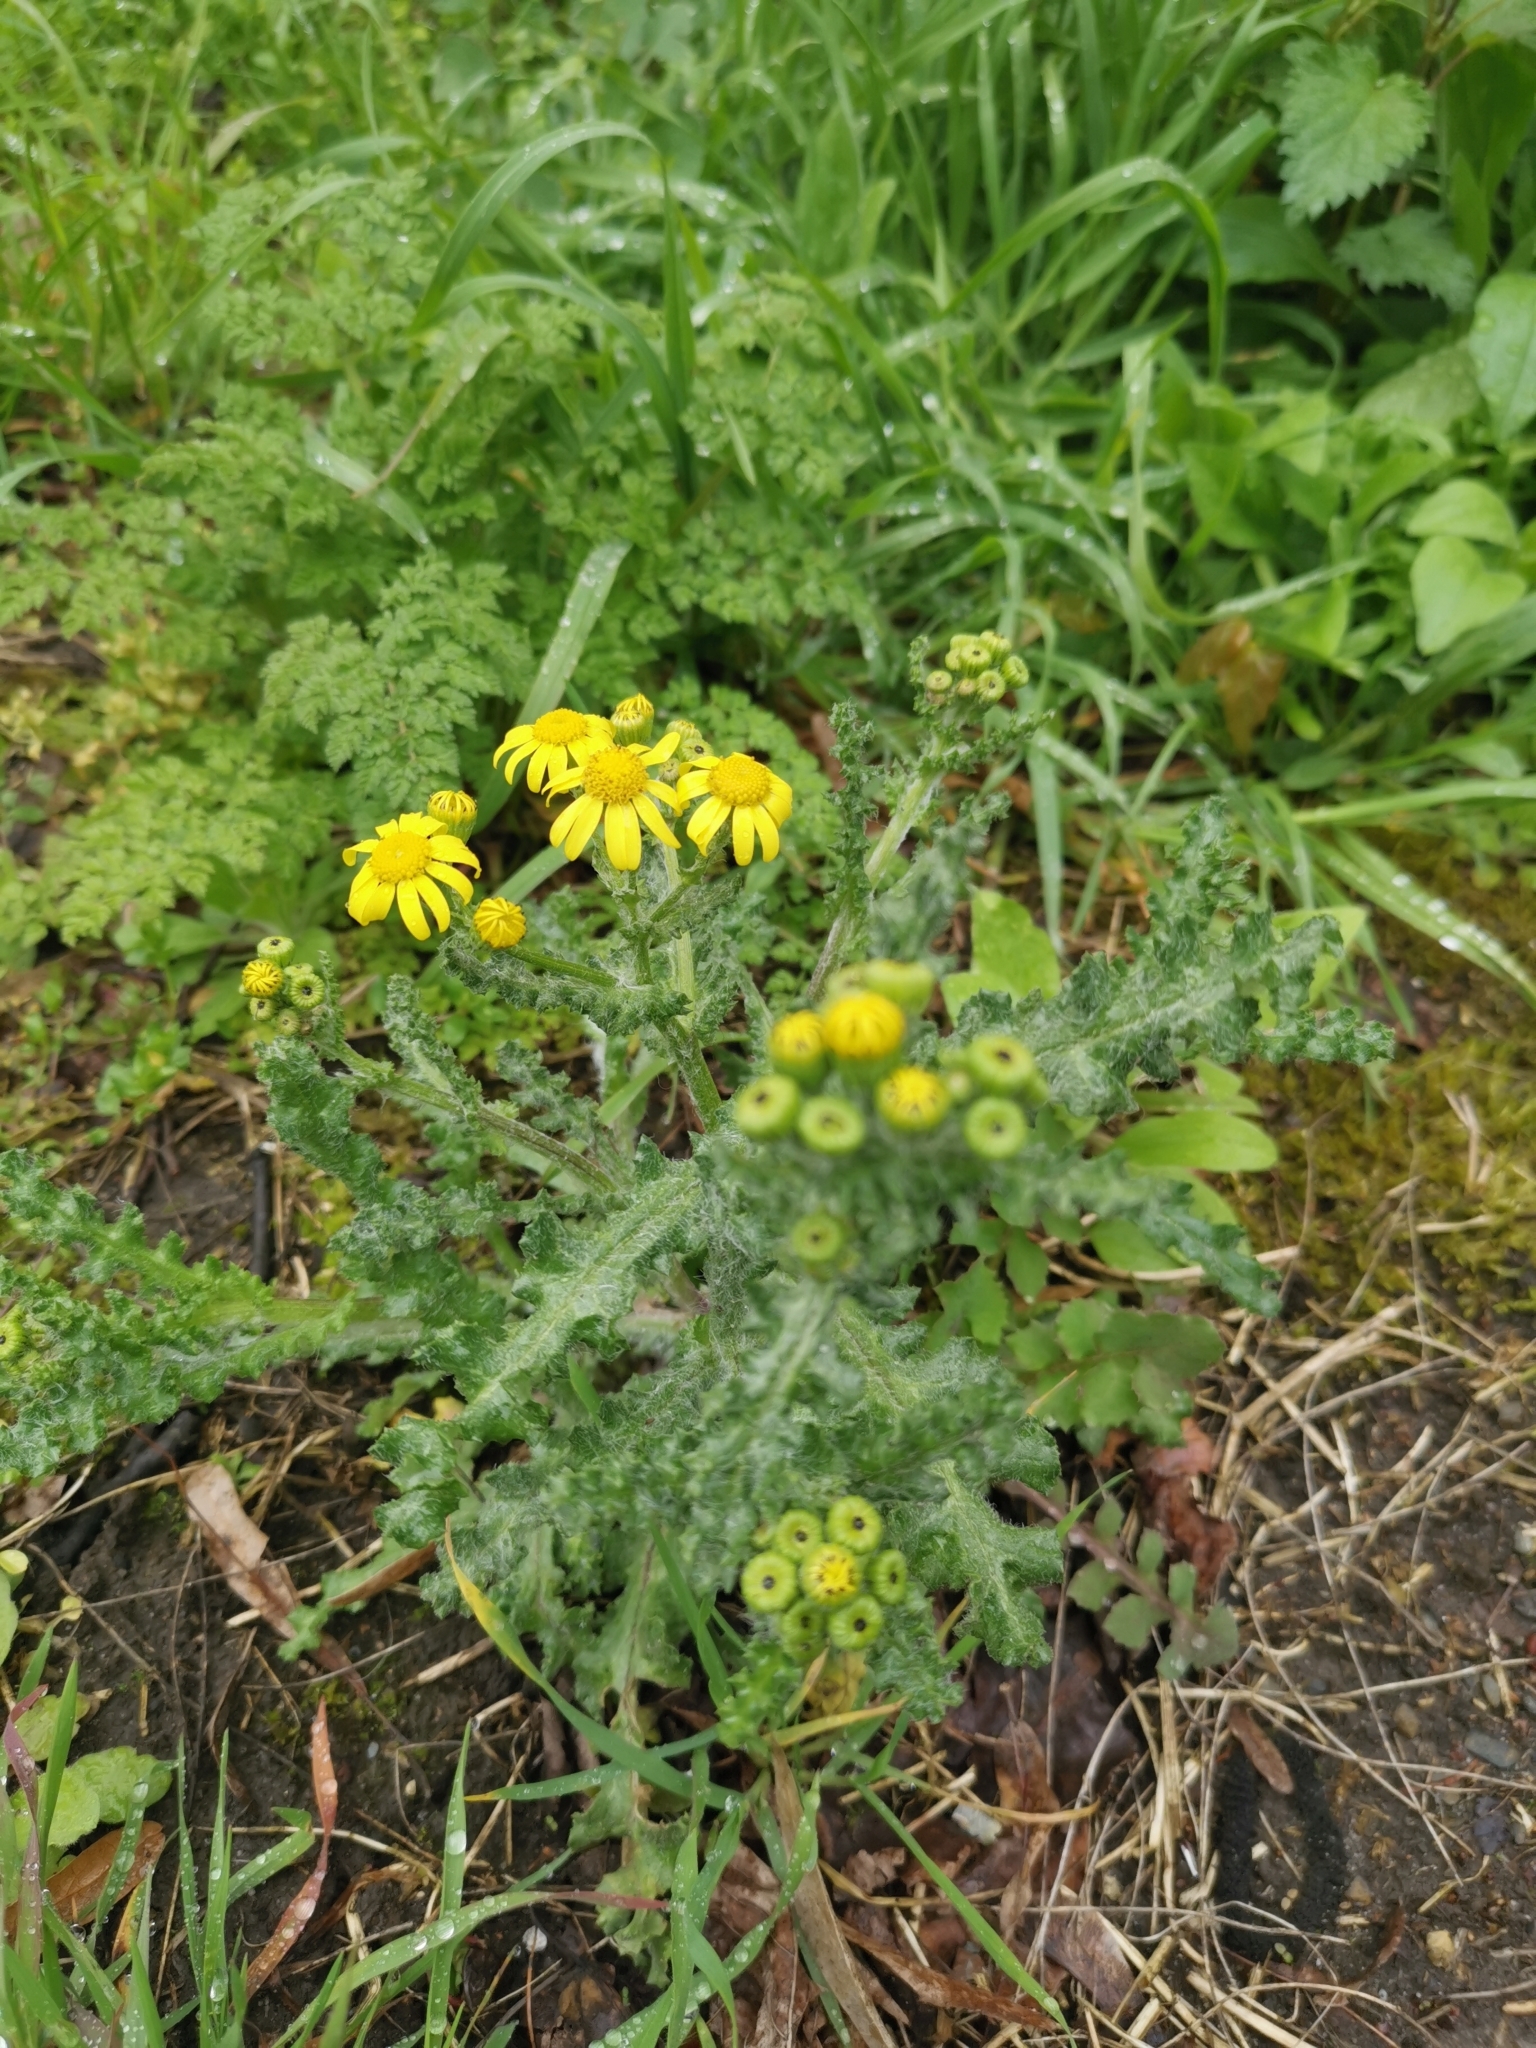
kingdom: Plantae
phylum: Tracheophyta
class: Magnoliopsida
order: Asterales
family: Asteraceae
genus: Senecio
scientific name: Senecio vernalis
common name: Eastern groundsel
